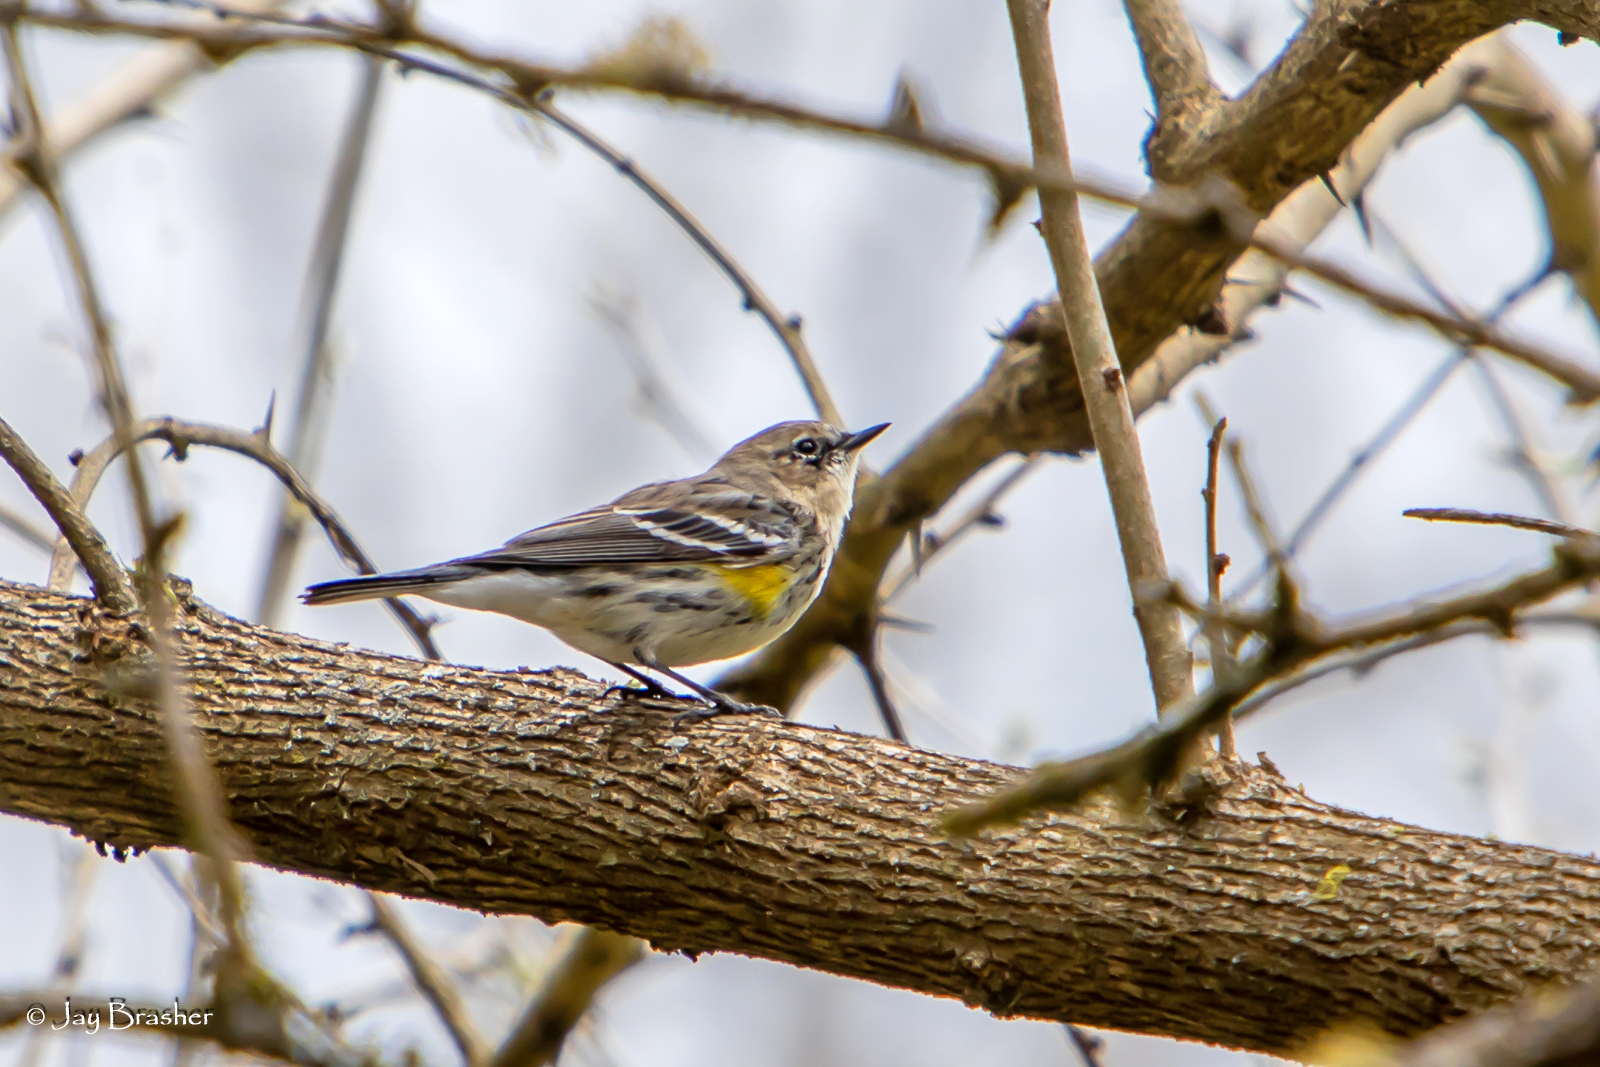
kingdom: Animalia
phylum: Chordata
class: Aves
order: Passeriformes
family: Parulidae
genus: Setophaga
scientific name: Setophaga coronata
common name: Myrtle warbler
